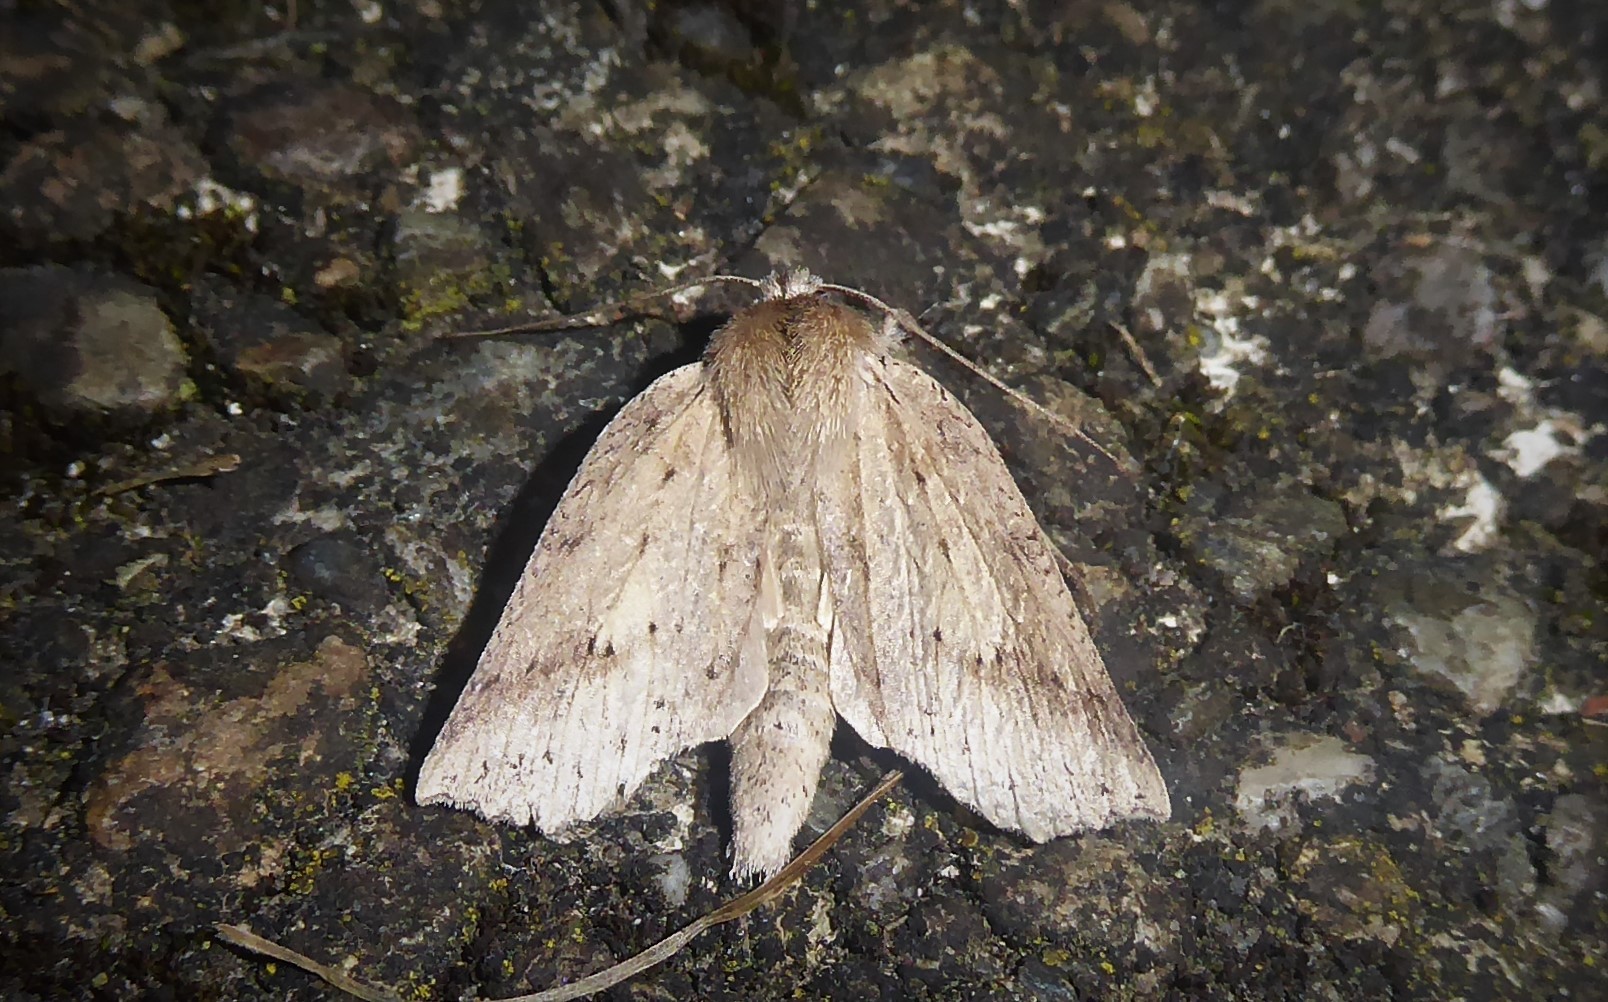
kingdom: Animalia
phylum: Arthropoda
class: Insecta
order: Lepidoptera
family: Geometridae
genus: Declana
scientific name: Declana leptomera
